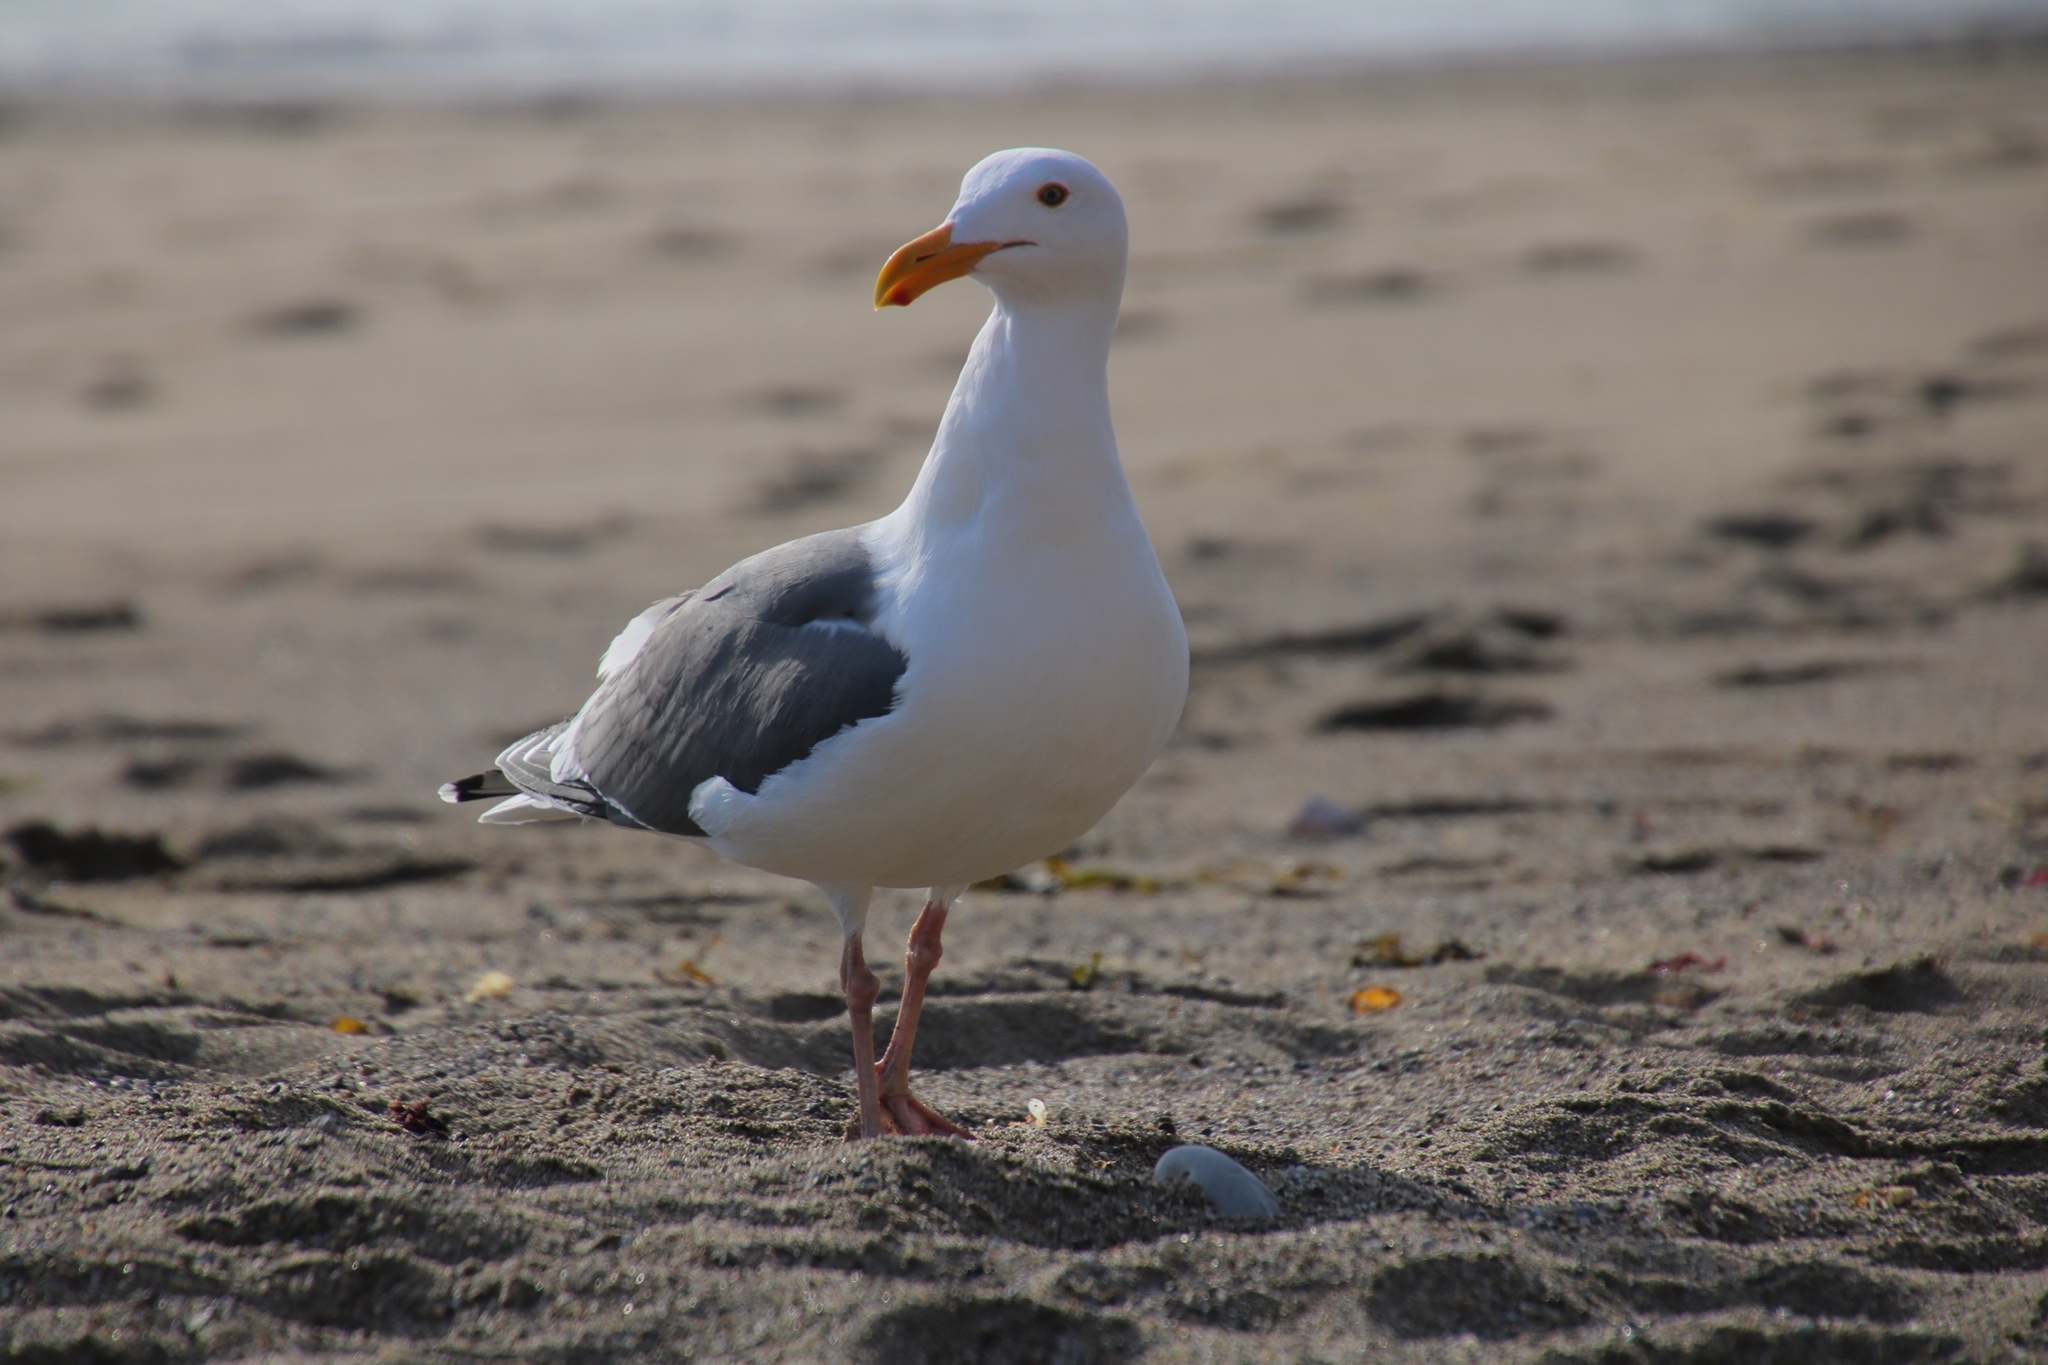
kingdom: Animalia
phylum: Chordata
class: Aves
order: Charadriiformes
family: Laridae
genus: Larus
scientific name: Larus occidentalis
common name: Western gull
